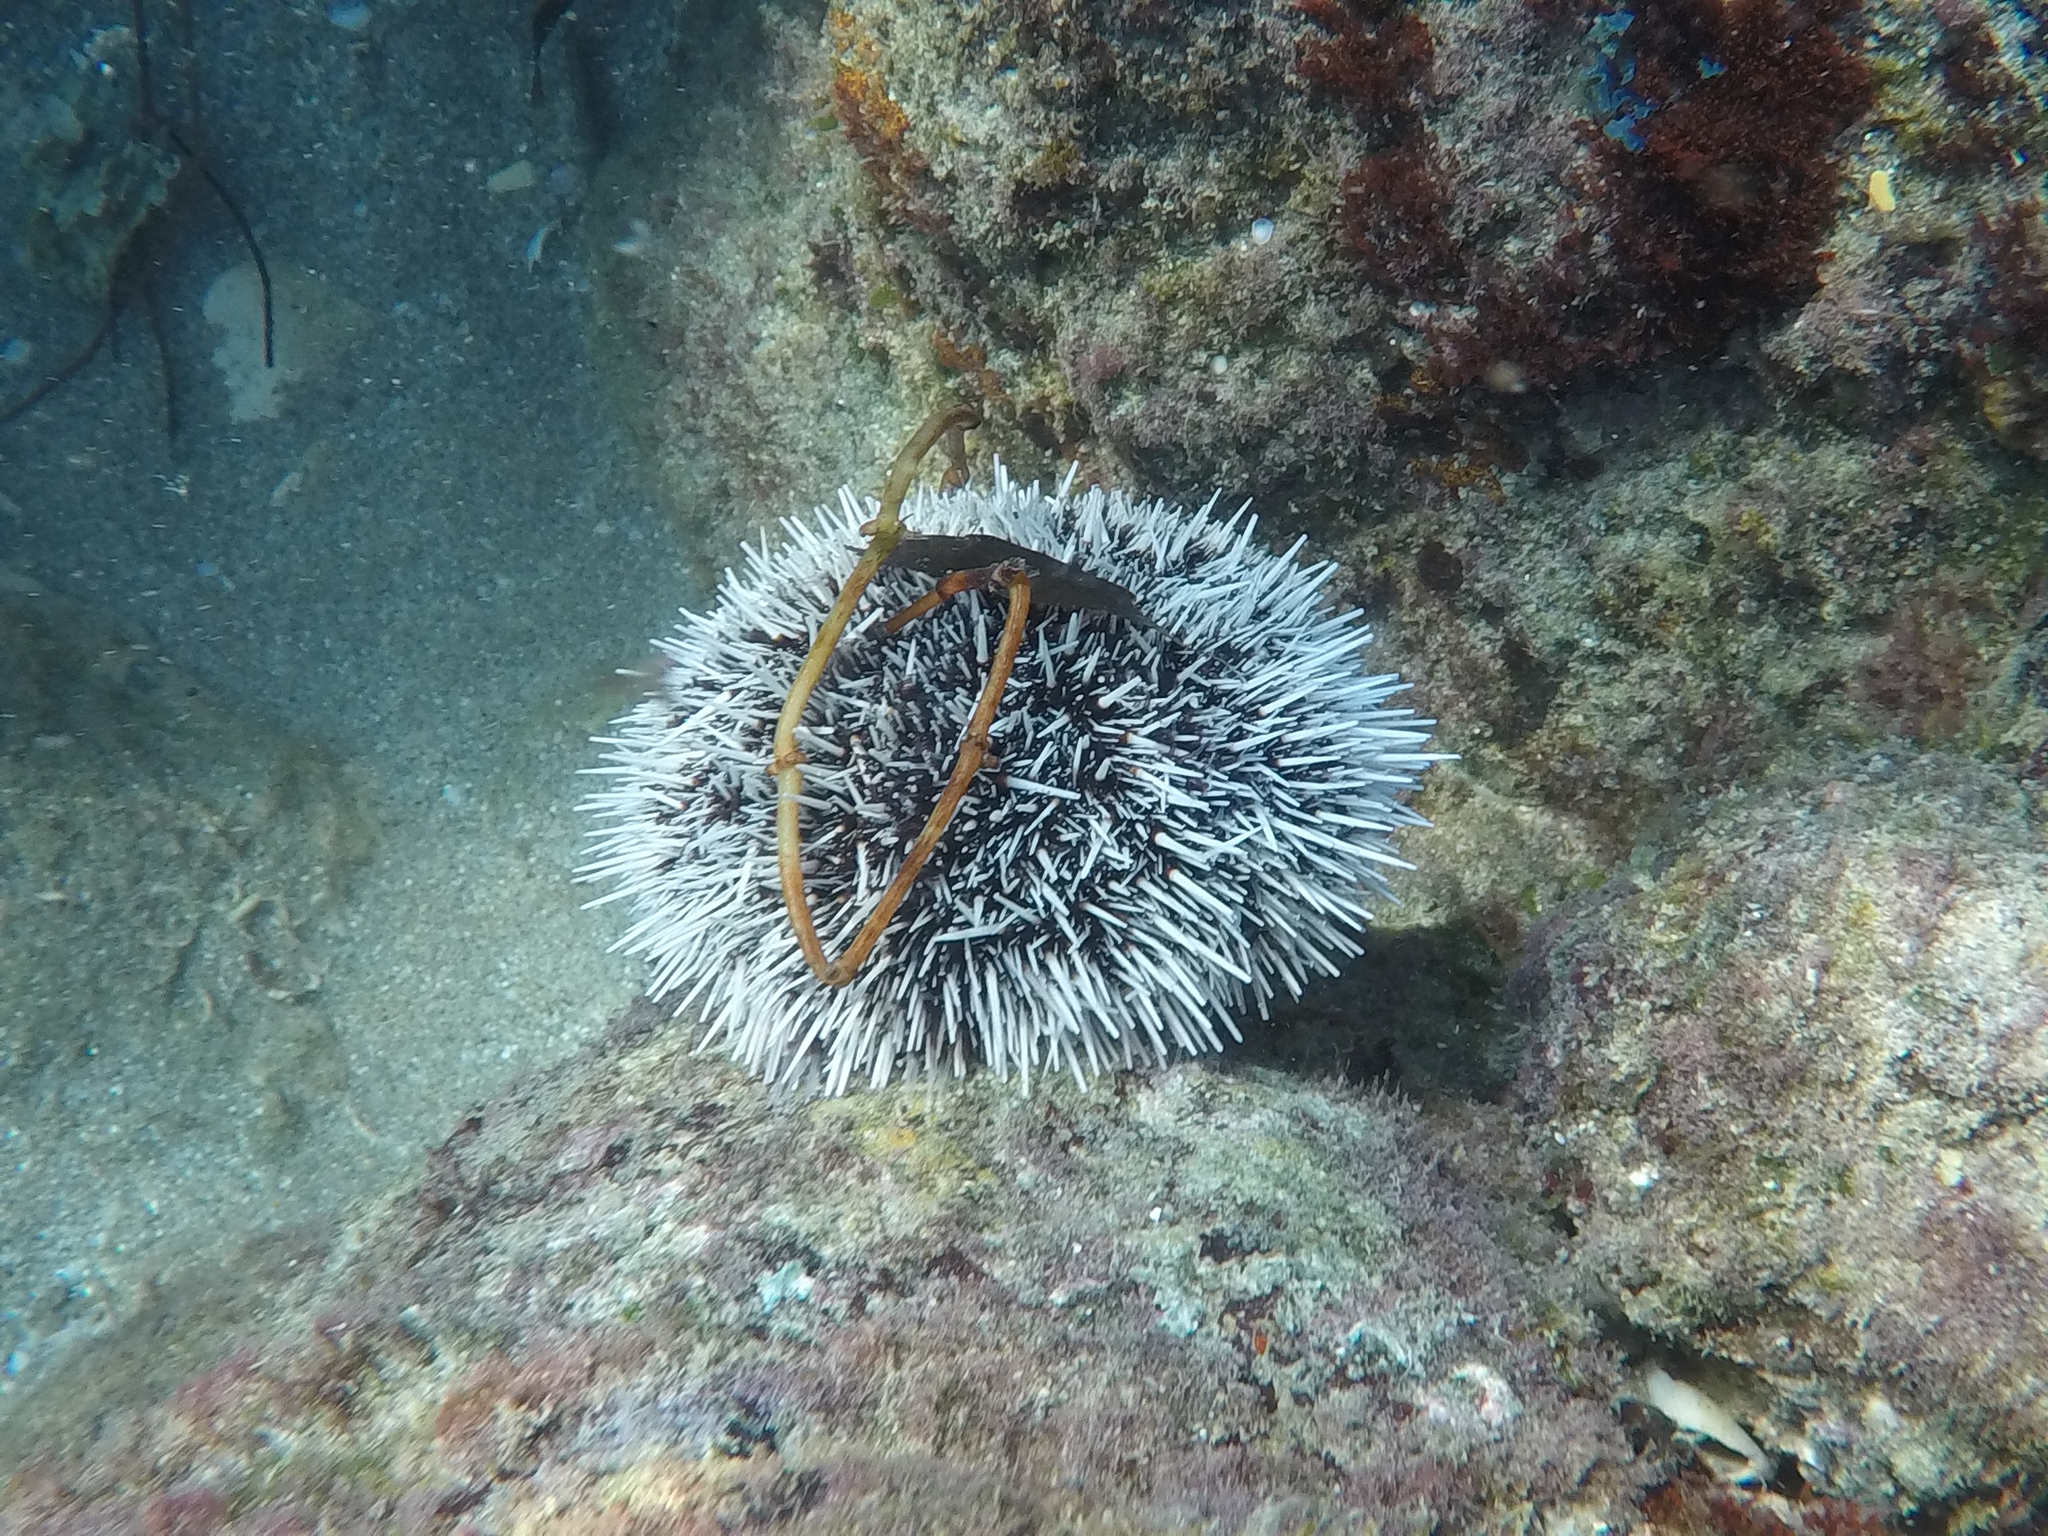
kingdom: Animalia
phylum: Echinodermata
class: Echinoidea
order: Camarodonta
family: Toxopneustidae
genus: Tripneustes
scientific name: Tripneustes ventricosus
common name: West indian sea egg
